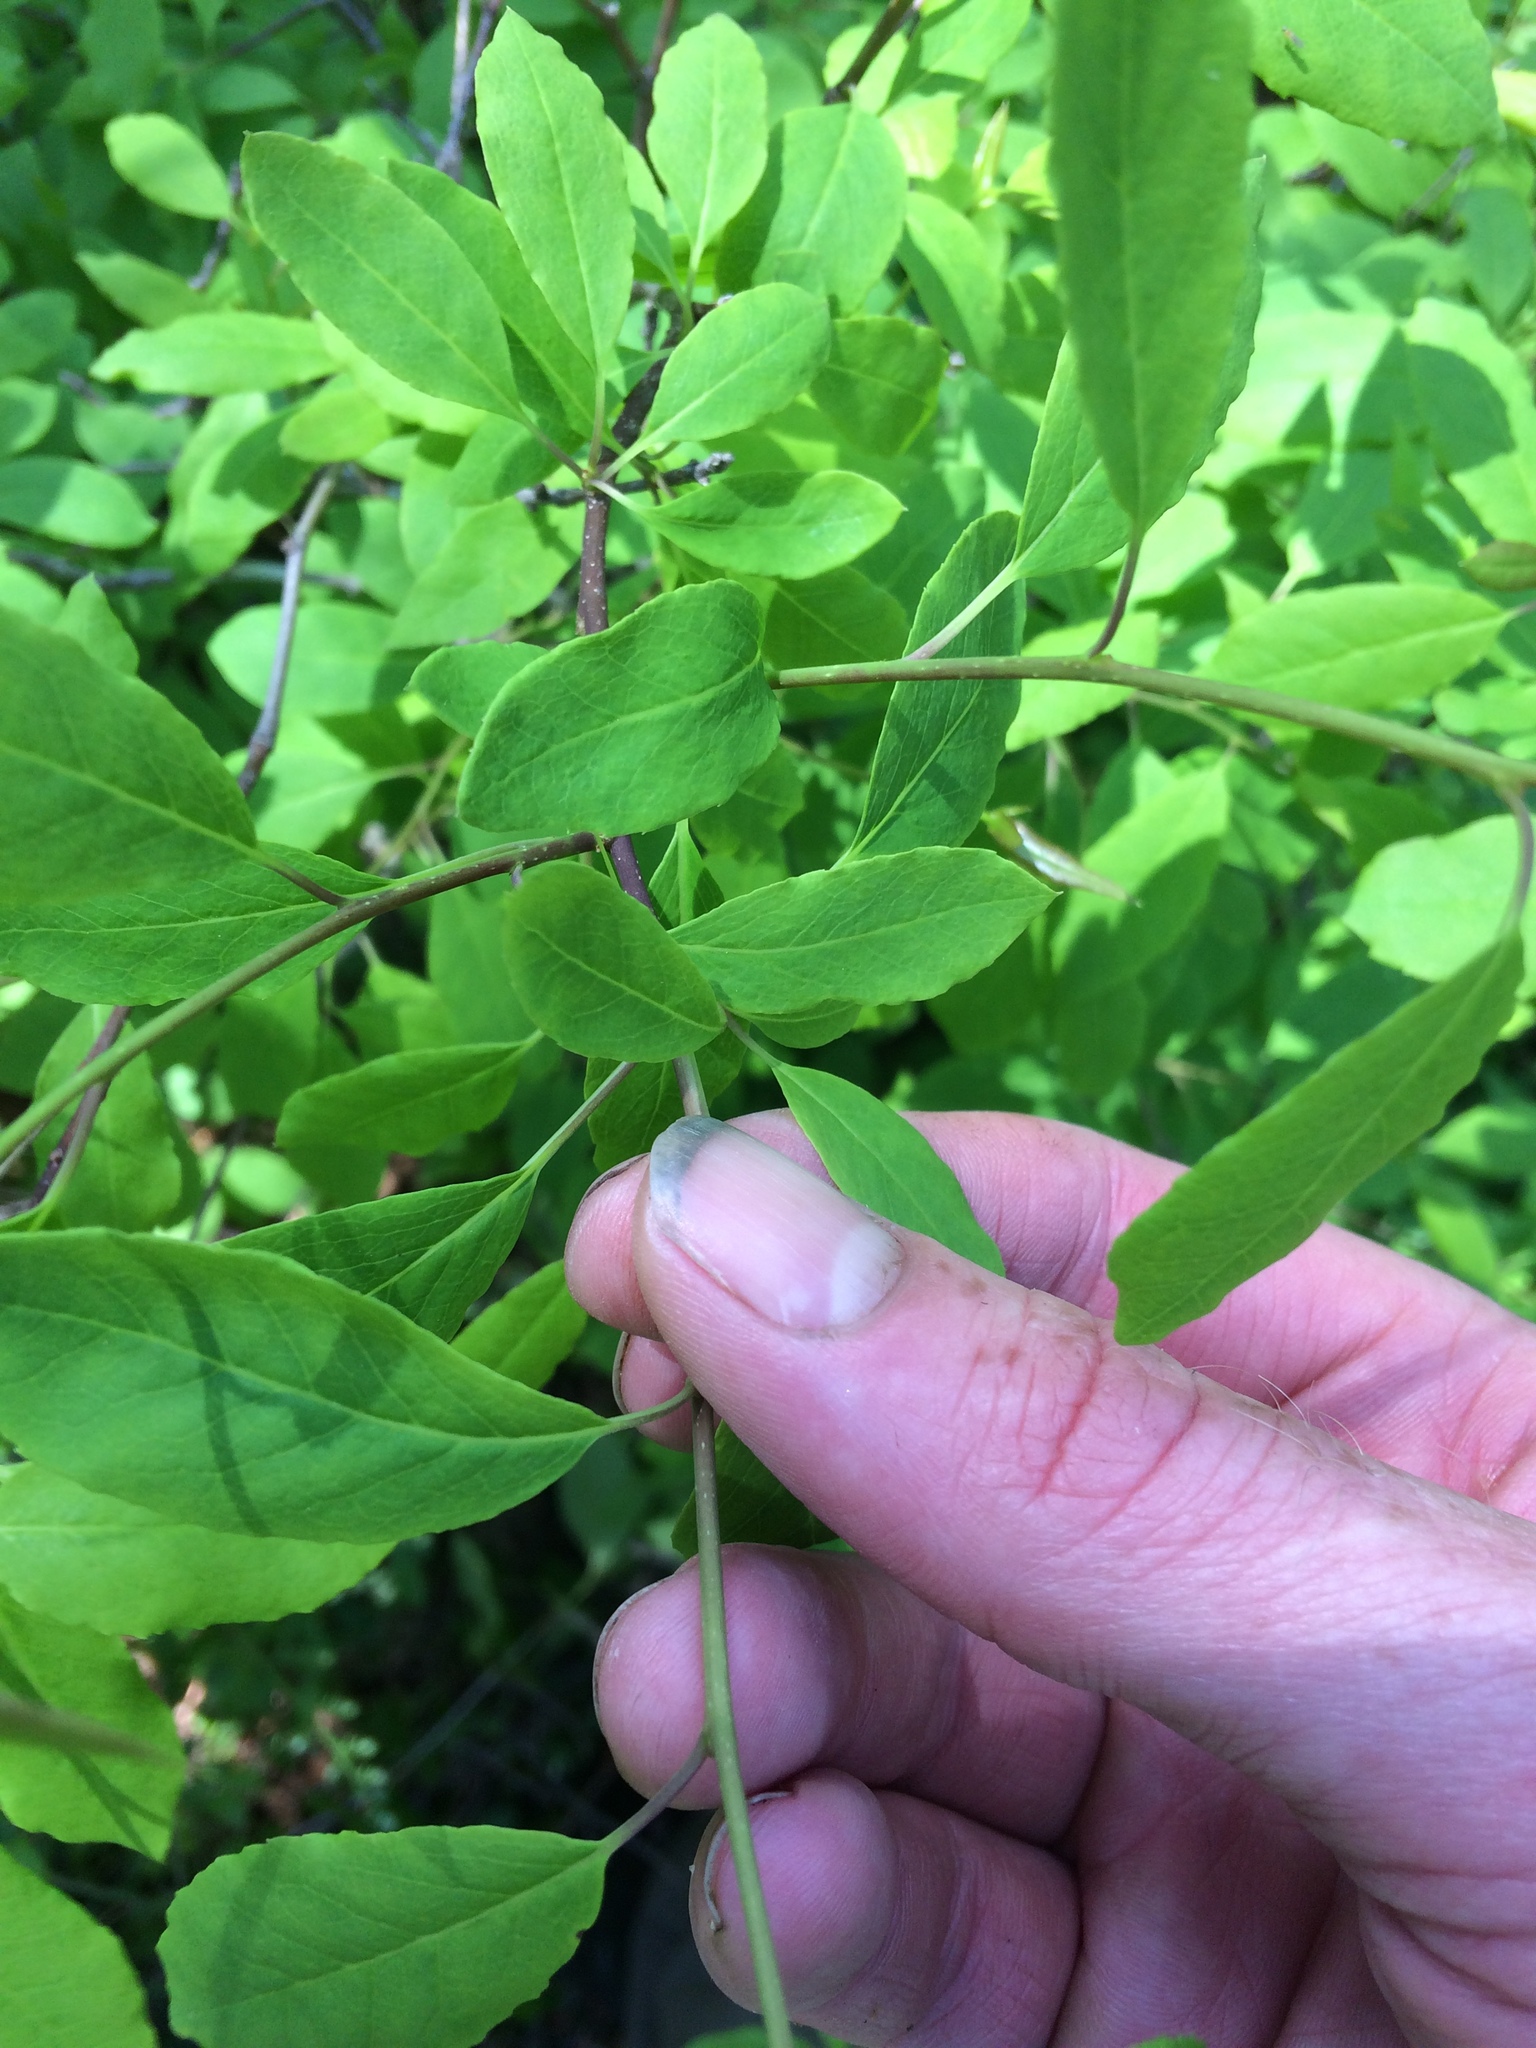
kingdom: Plantae
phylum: Tracheophyta
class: Magnoliopsida
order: Aquifoliales
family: Aquifoliaceae
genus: Ilex
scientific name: Ilex mucronata
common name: Catberry
